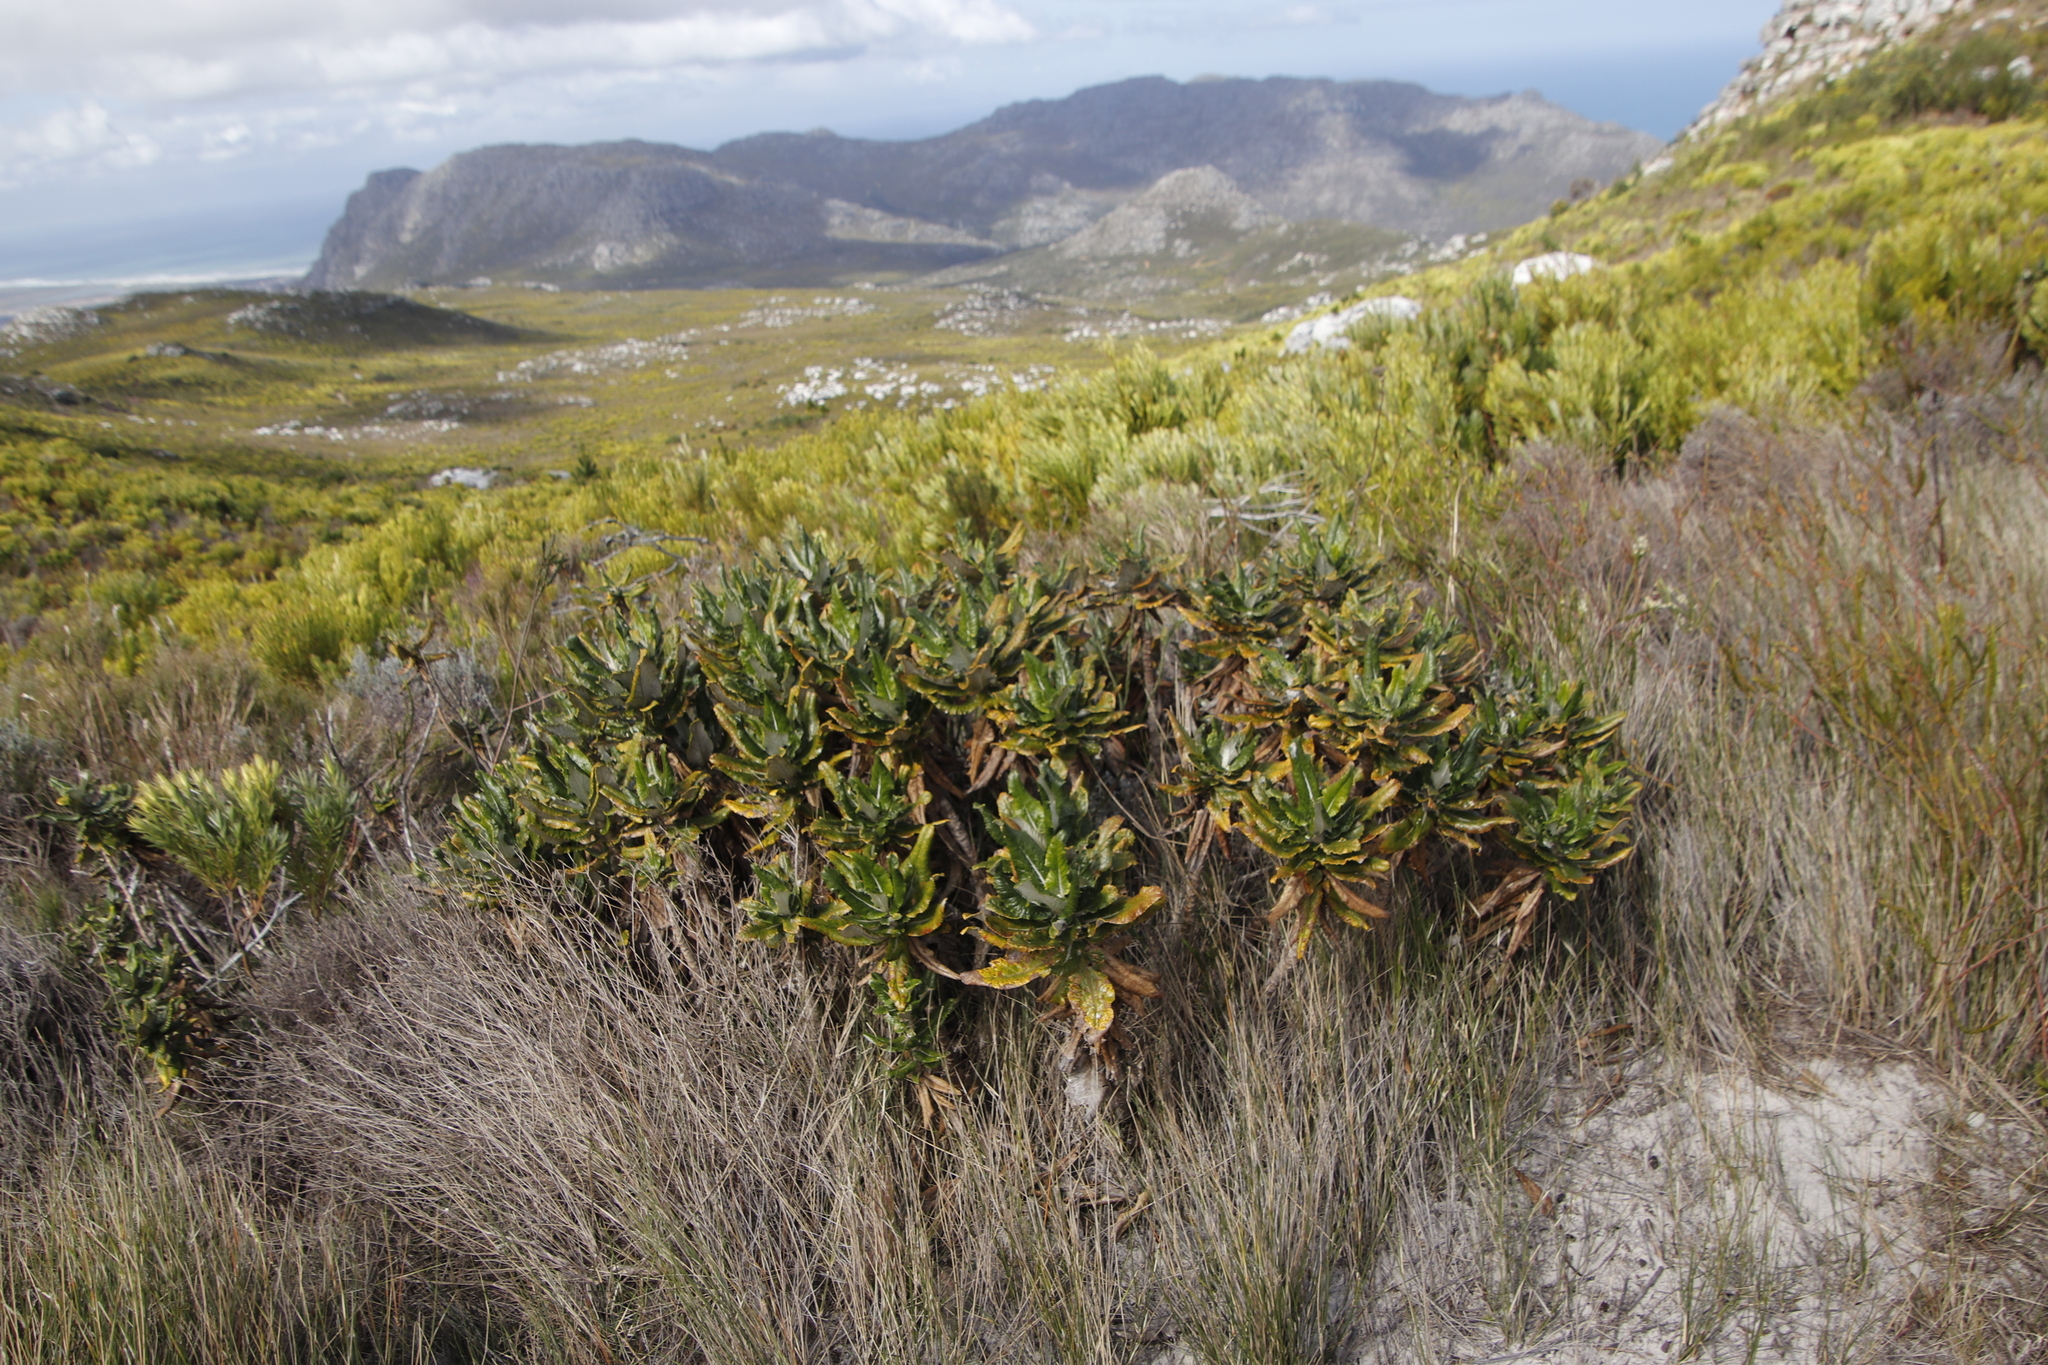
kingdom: Plantae
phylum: Tracheophyta
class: Magnoliopsida
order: Apiales
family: Apiaceae
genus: Hermas
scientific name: Hermas villosa
